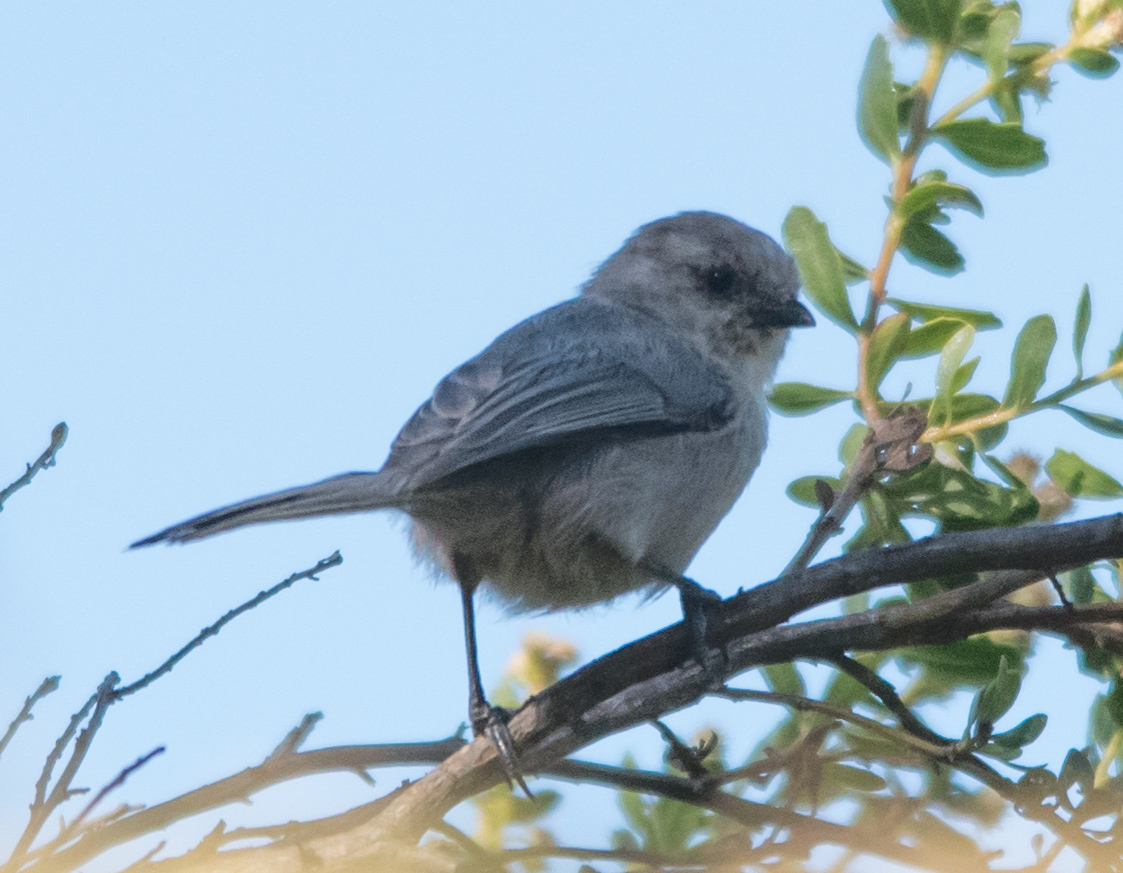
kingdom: Animalia
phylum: Chordata
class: Aves
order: Passeriformes
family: Aegithalidae
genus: Psaltriparus
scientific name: Psaltriparus minimus
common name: American bushtit
